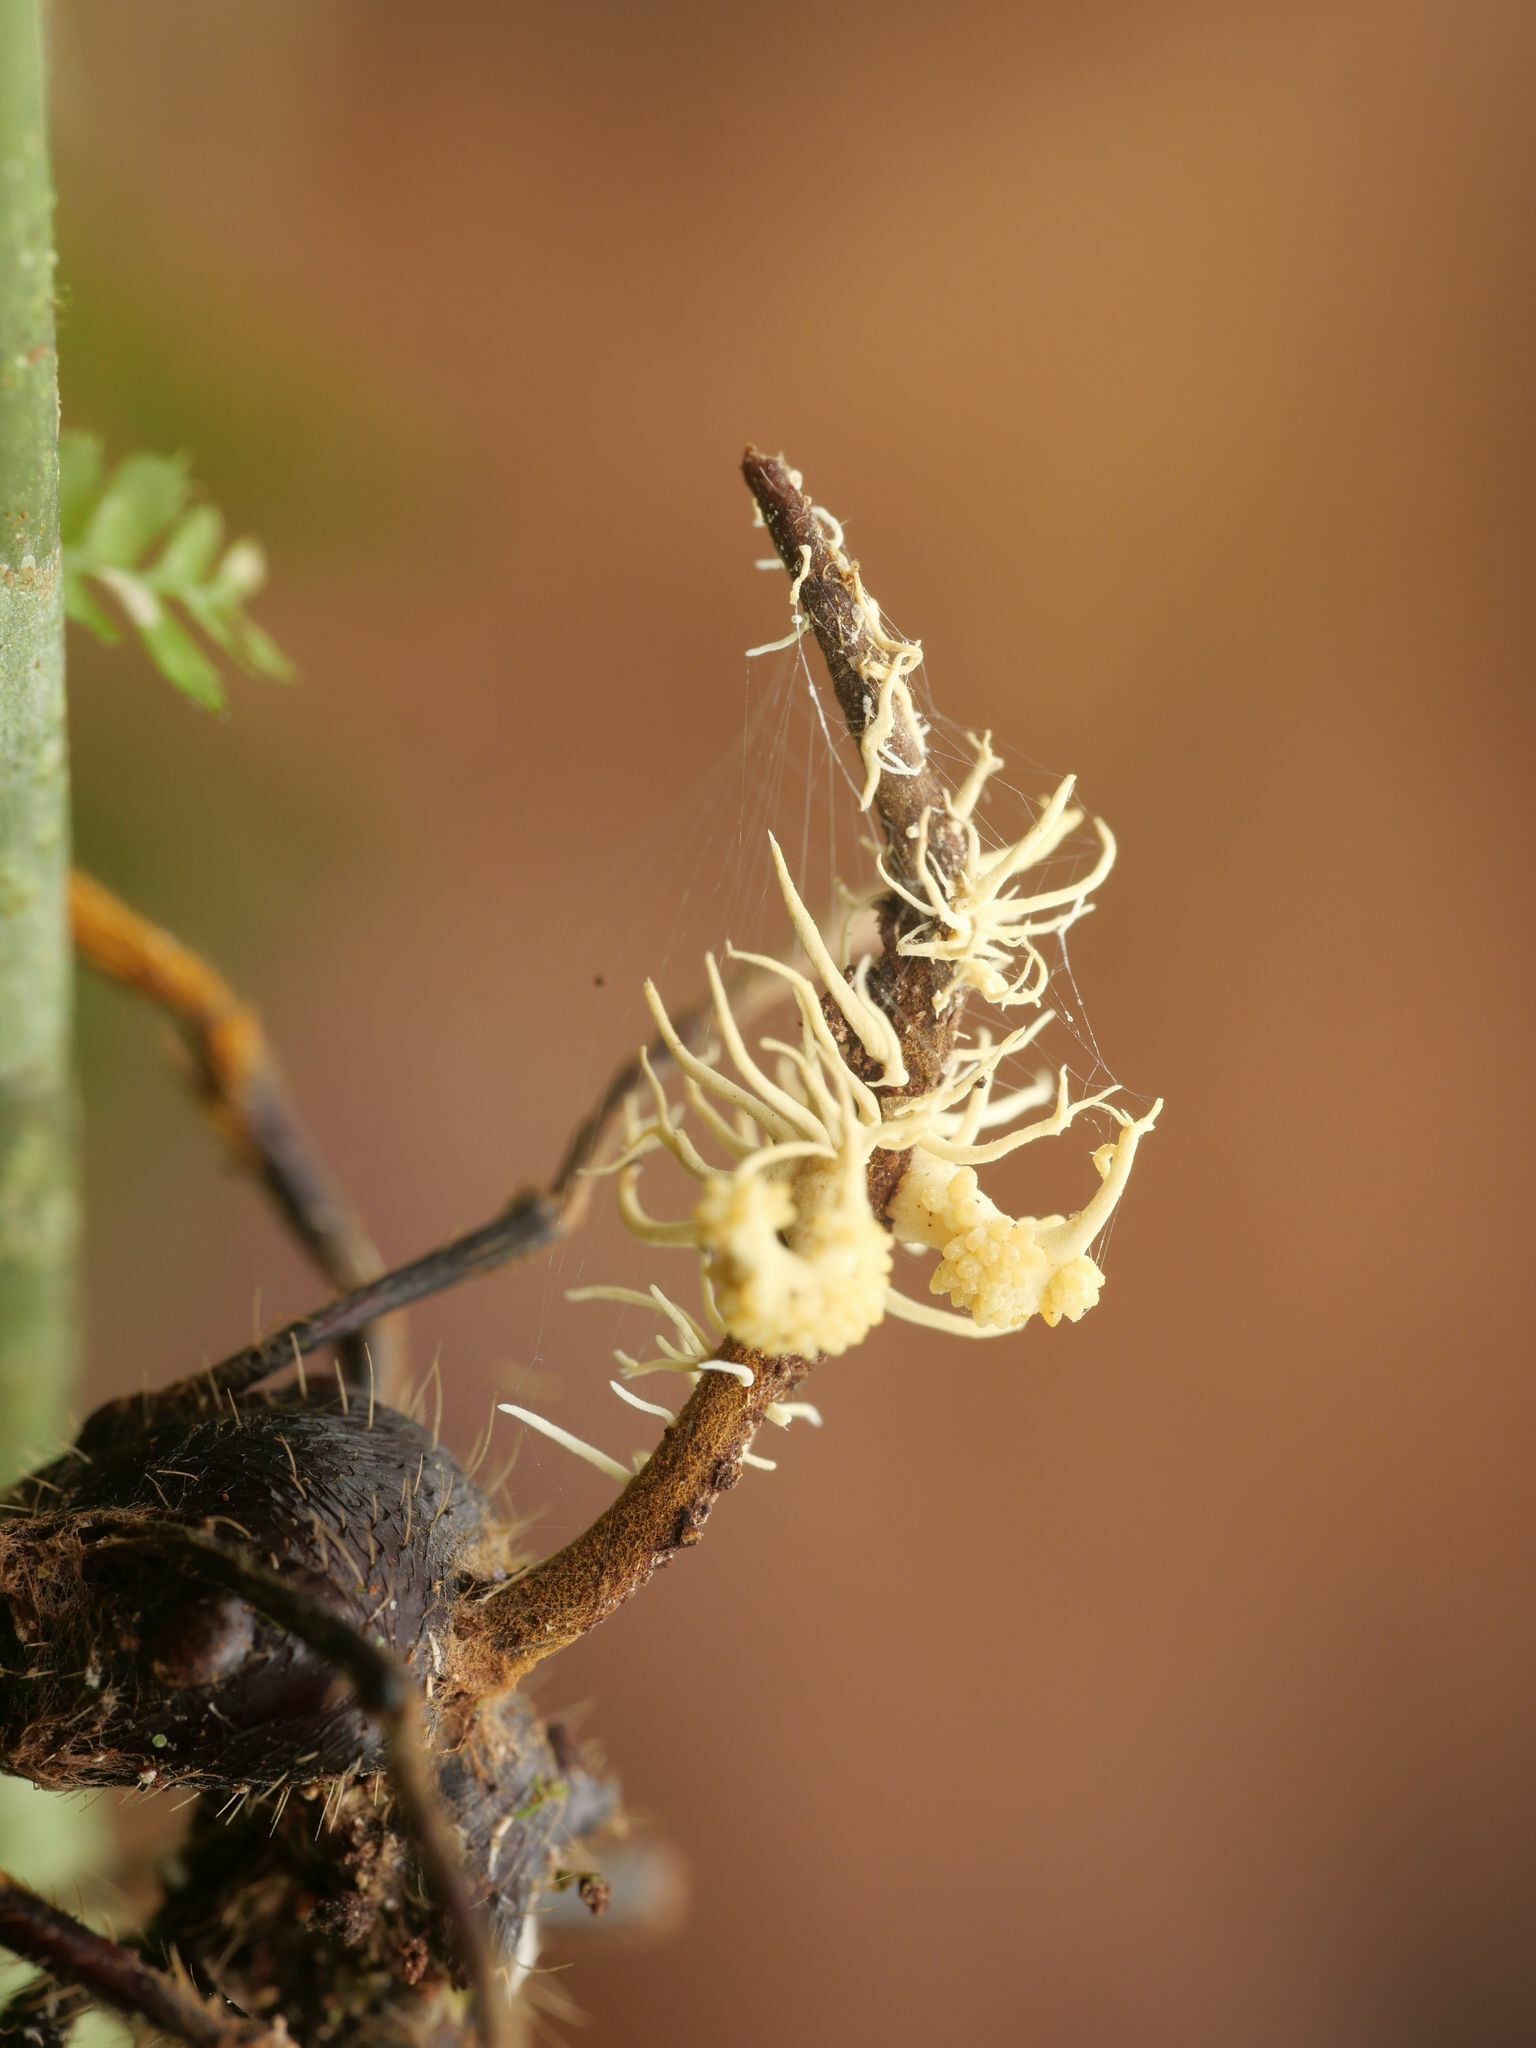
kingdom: Fungi
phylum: Ascomycota
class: Sordariomycetes
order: Hypocreales
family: Ophiocordycipitaceae
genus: Ophiocordyceps
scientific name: Ophiocordyceps ponerinarum
